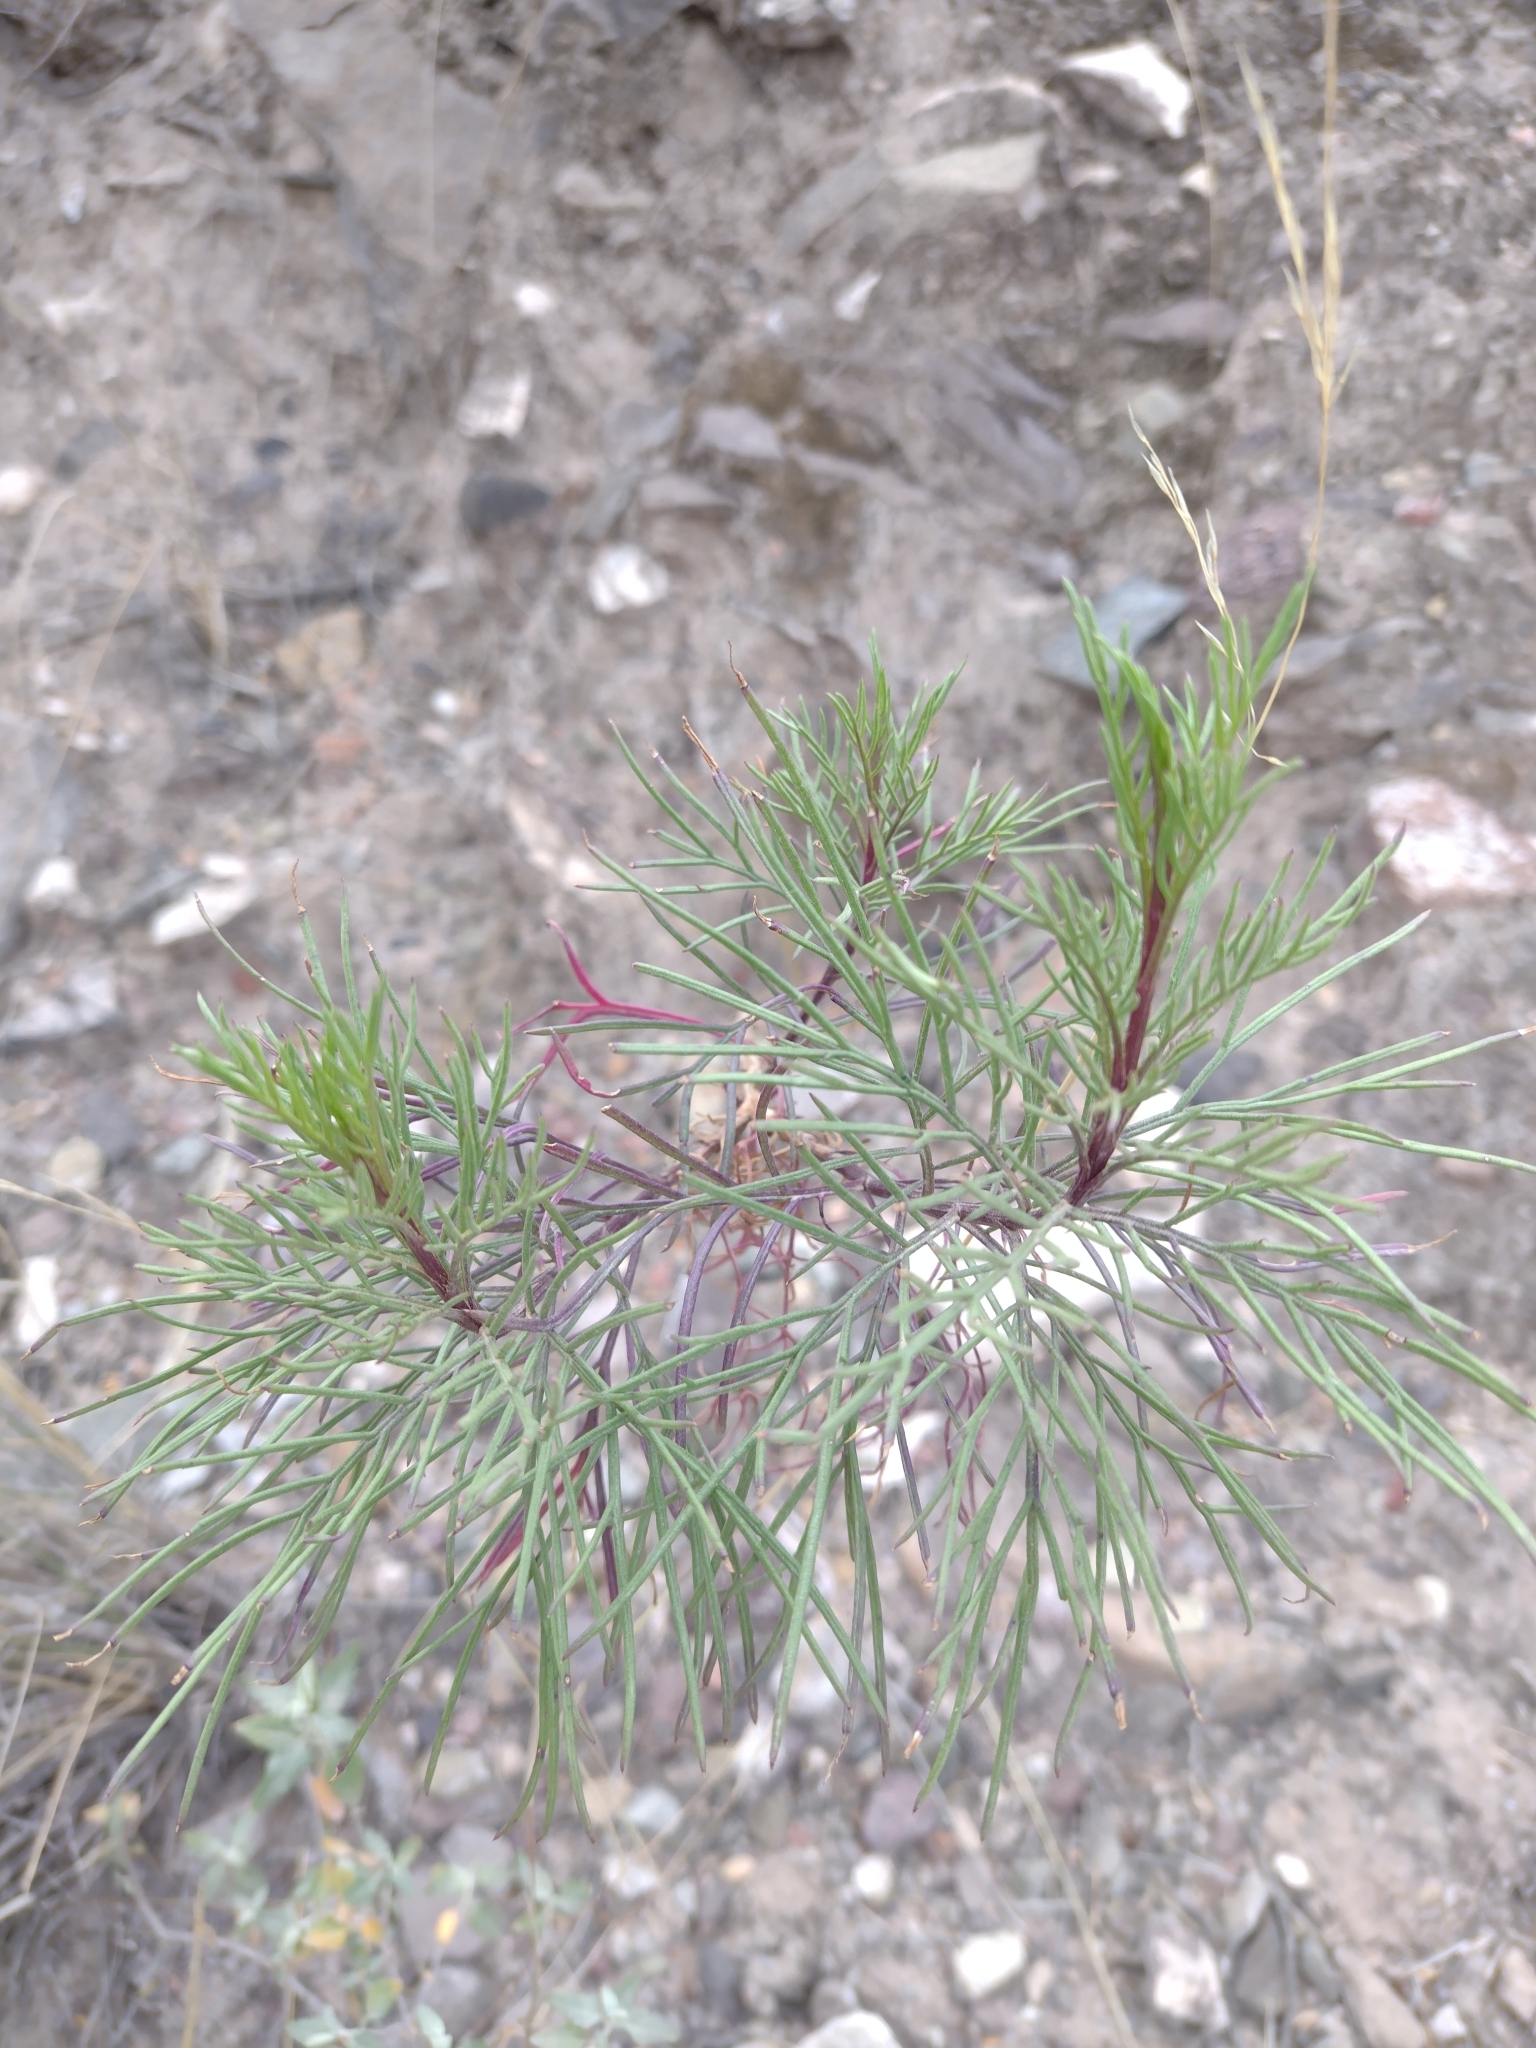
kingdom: Plantae
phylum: Tracheophyta
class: Magnoliopsida
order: Asterales
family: Asteraceae
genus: Senecio
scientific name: Senecio subulatus
